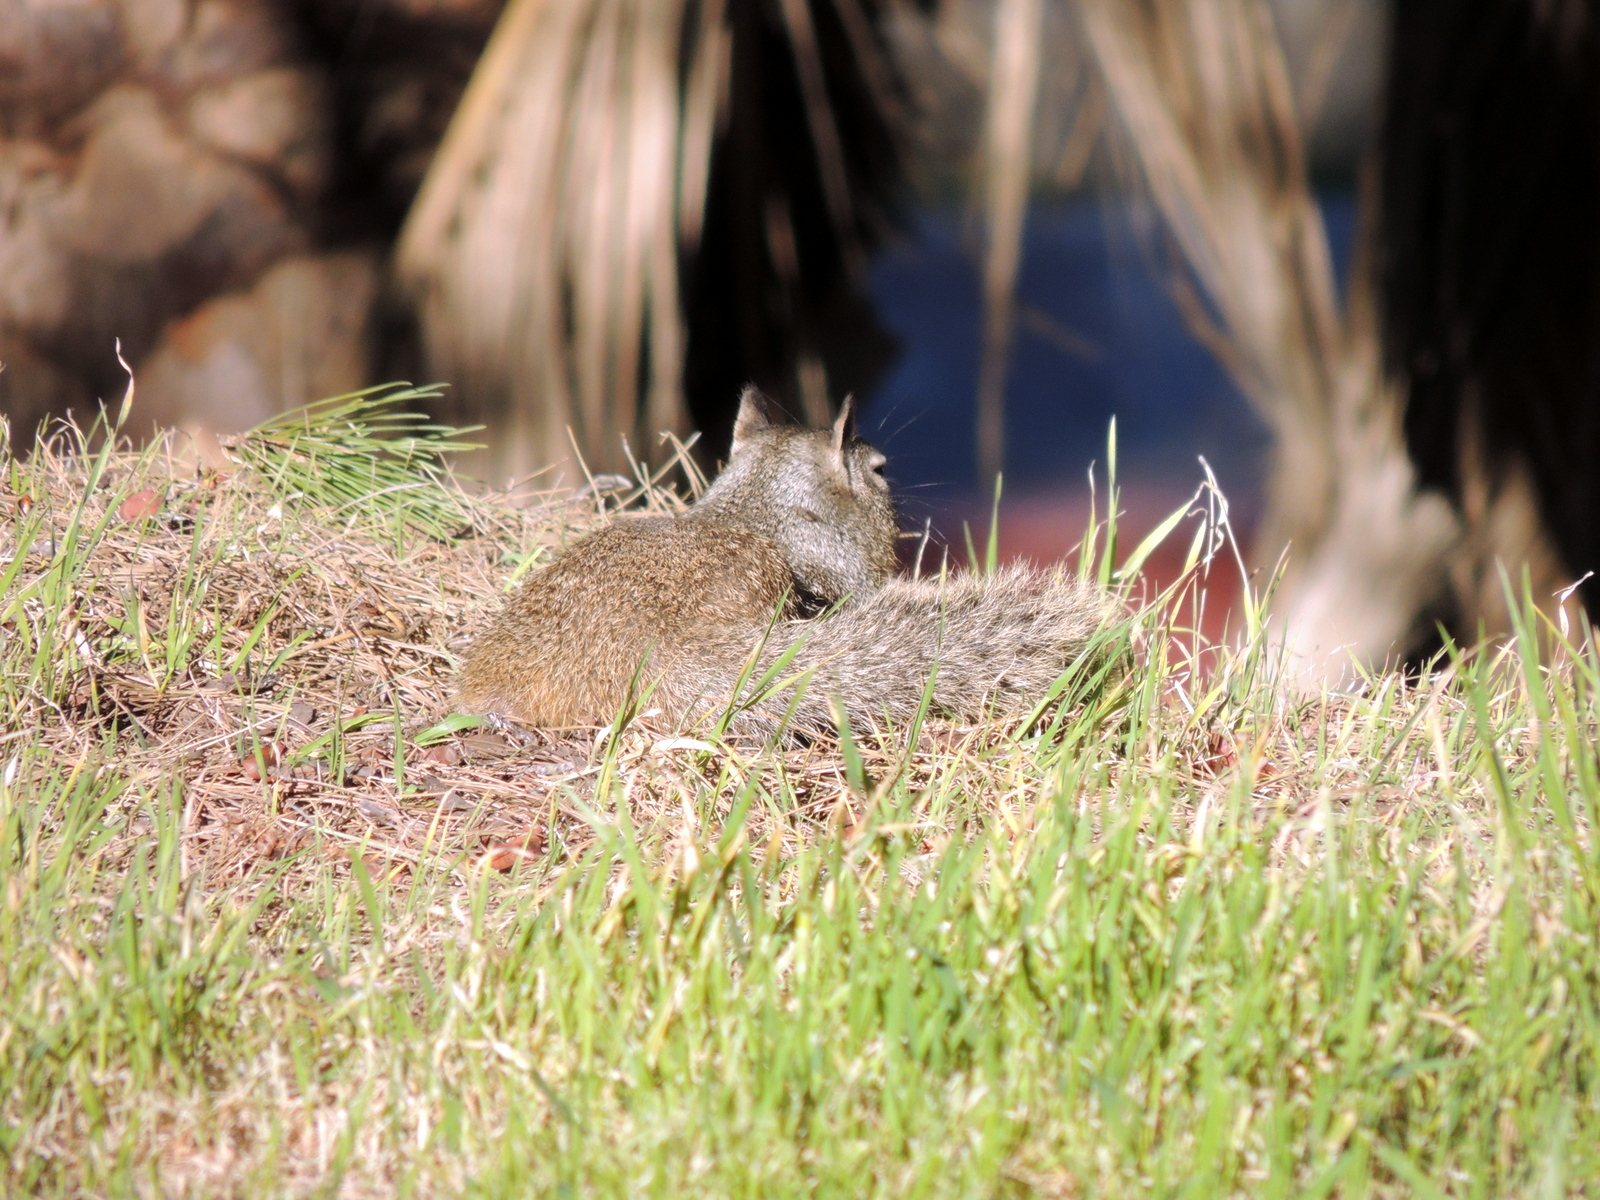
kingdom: Animalia
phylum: Chordata
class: Mammalia
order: Rodentia
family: Sciuridae
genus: Otospermophilus
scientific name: Otospermophilus beecheyi
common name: California ground squirrel
